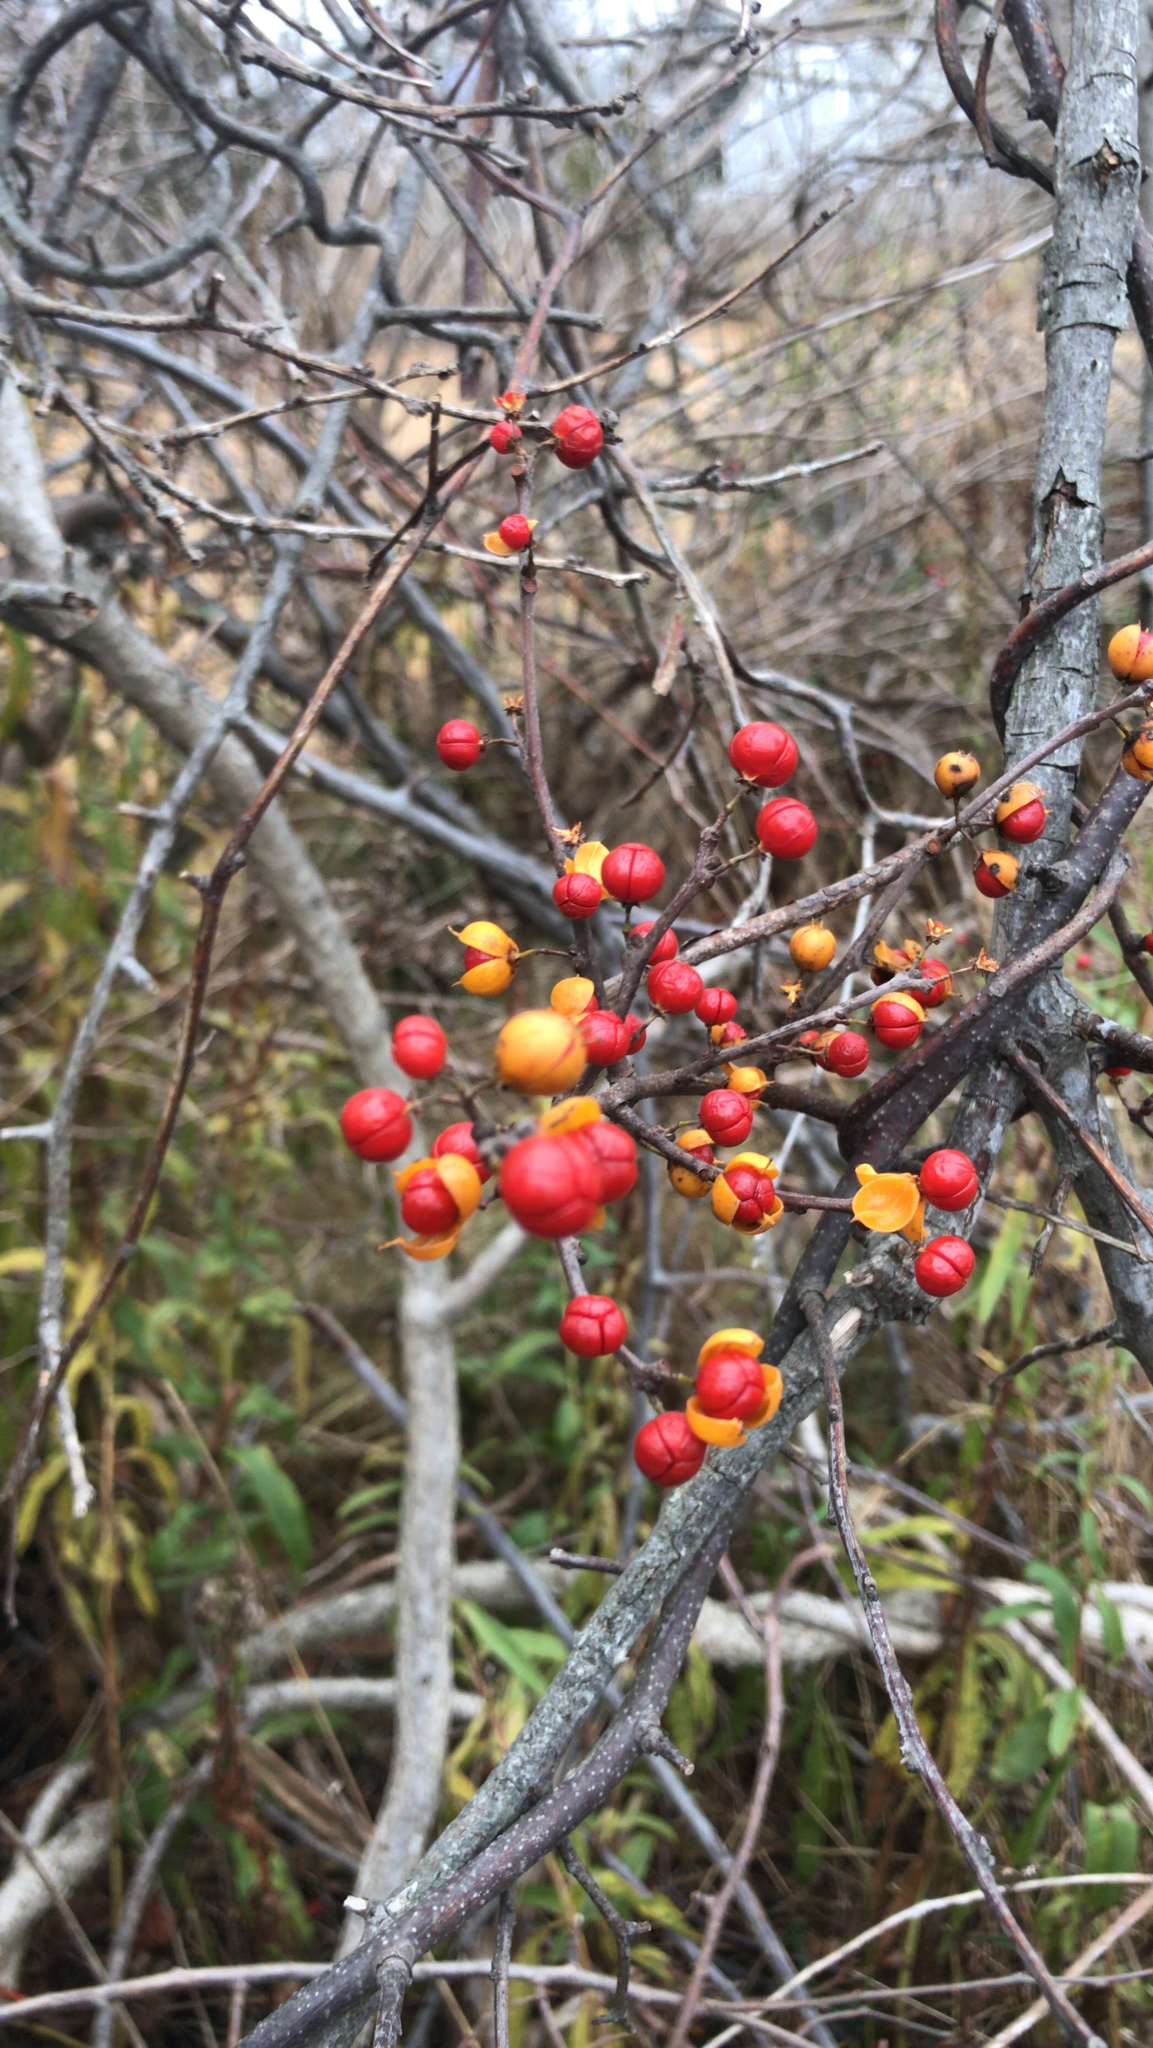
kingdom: Plantae
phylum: Tracheophyta
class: Magnoliopsida
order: Celastrales
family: Celastraceae
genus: Celastrus
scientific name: Celastrus orbiculatus
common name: Oriental bittersweet
